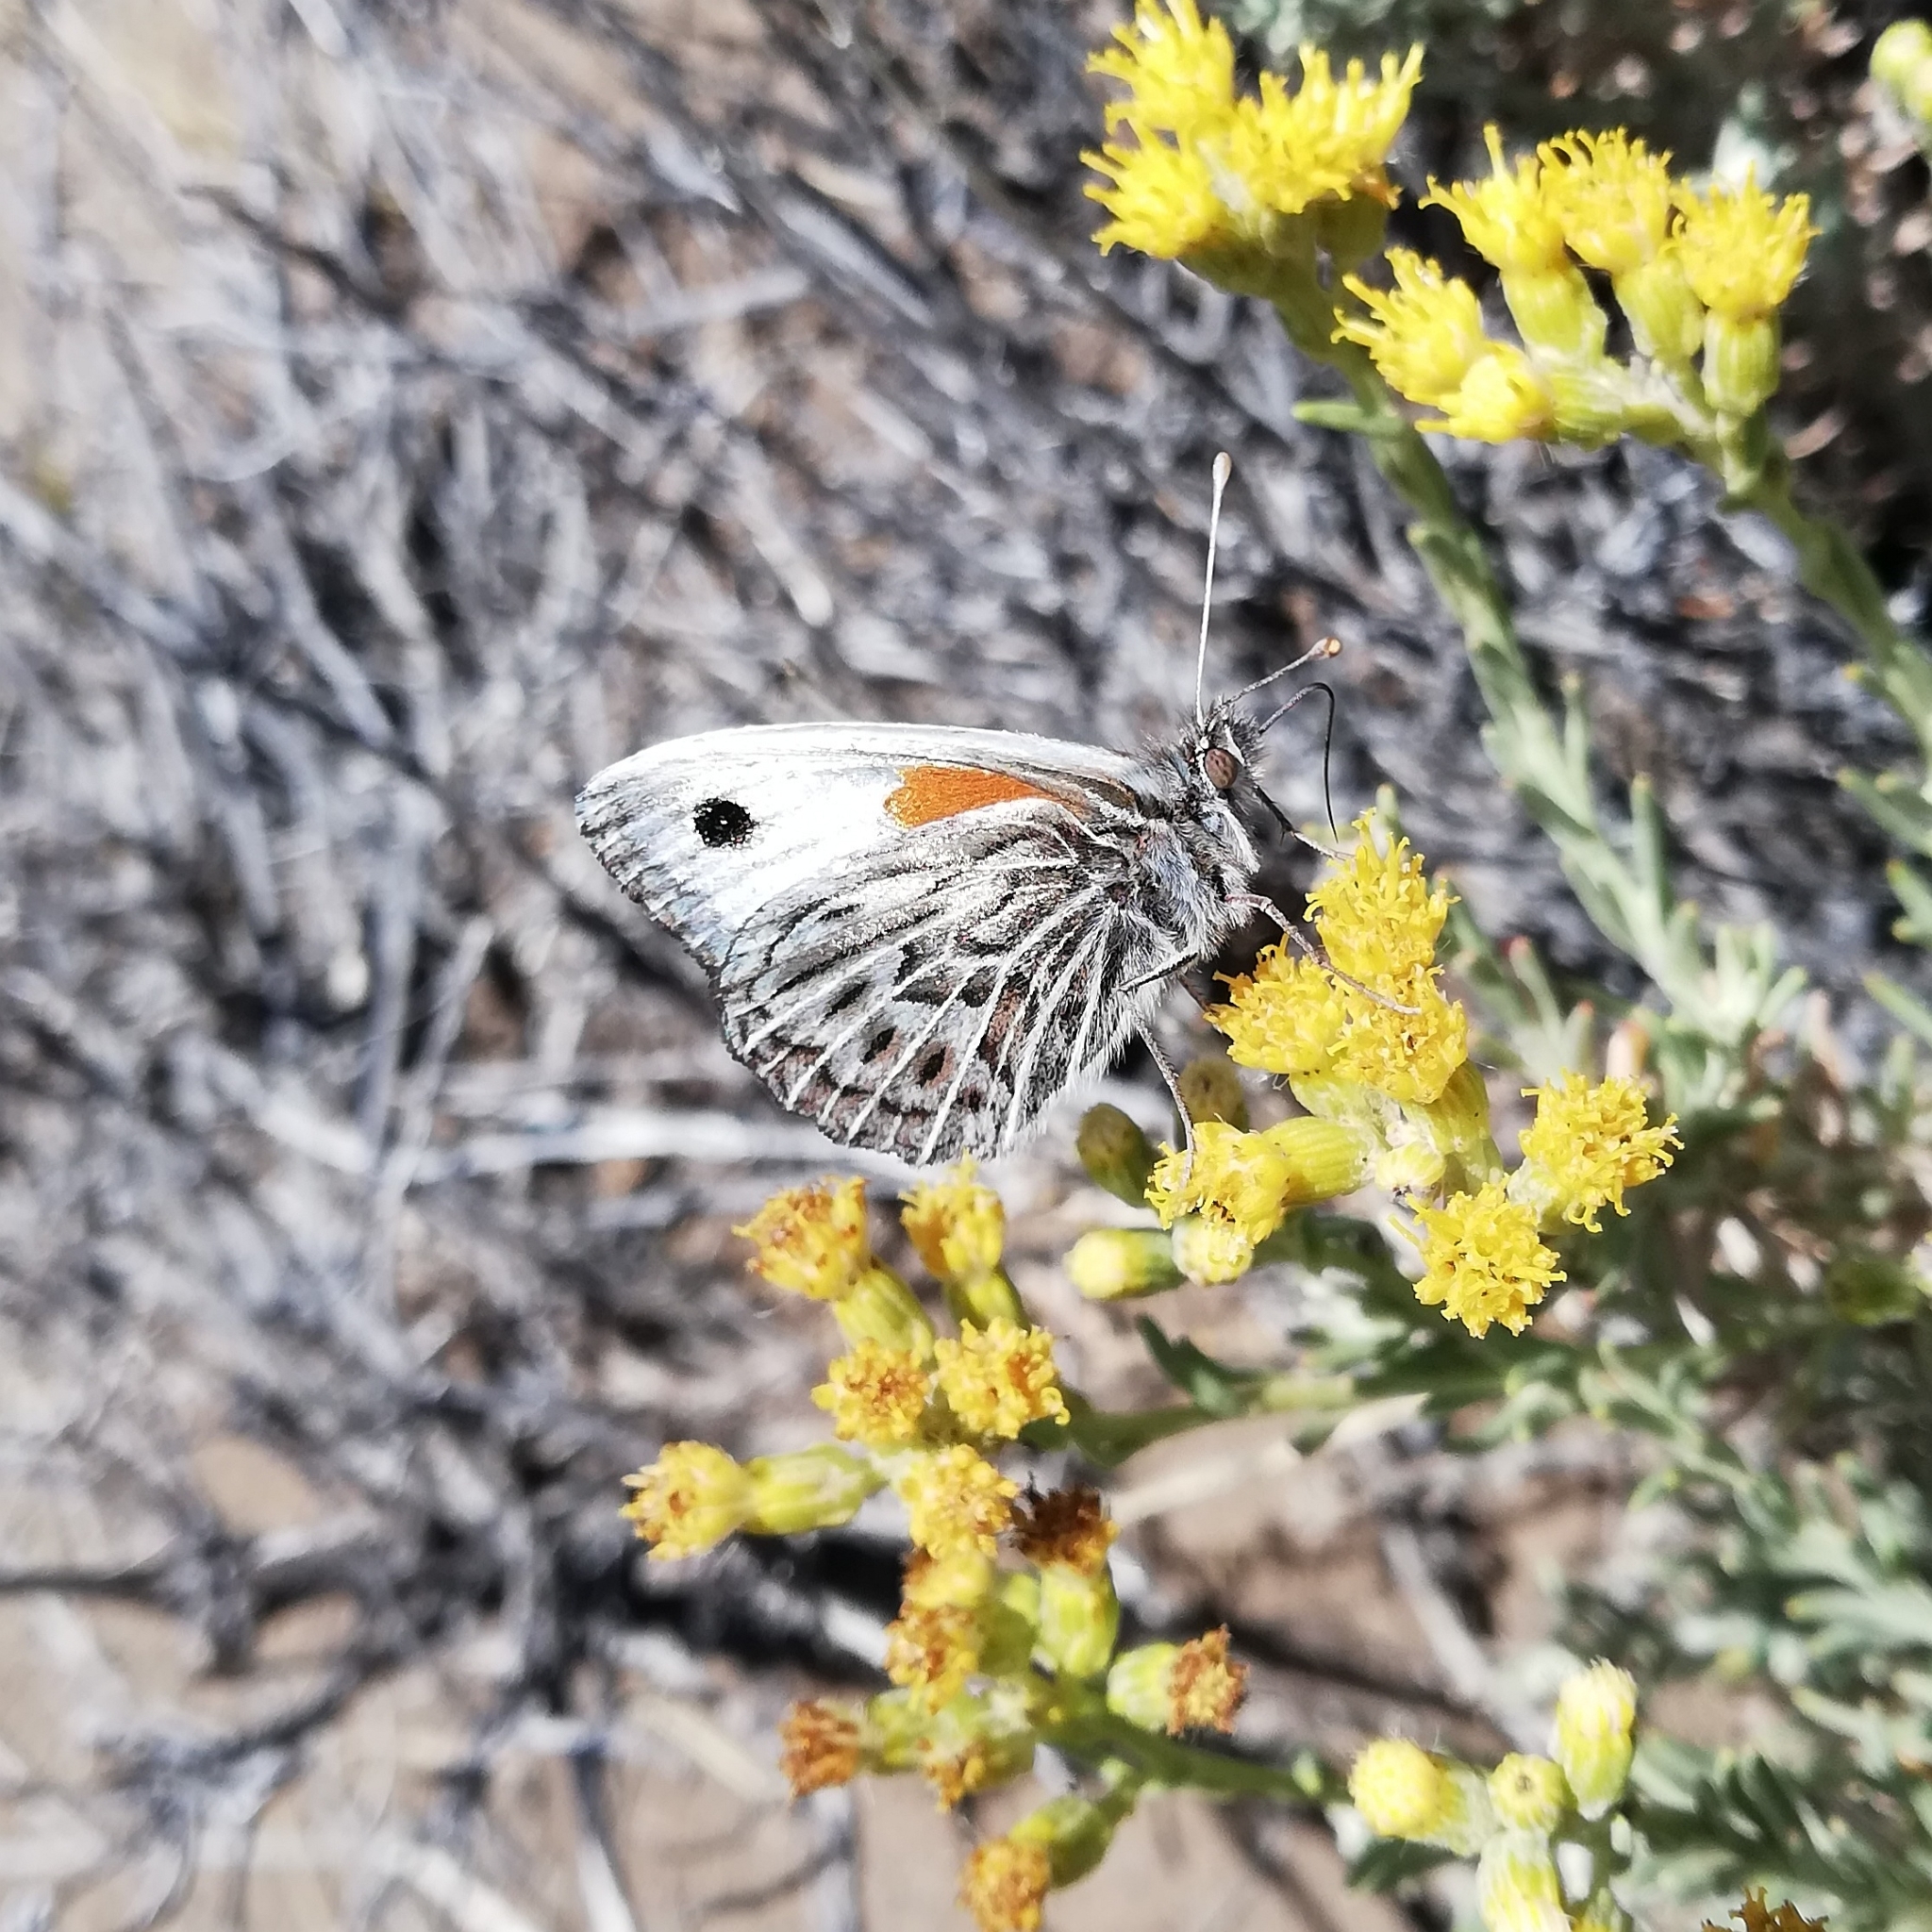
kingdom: Animalia
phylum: Arthropoda
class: Insecta
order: Lepidoptera
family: Nymphalidae
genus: Argyrophorus
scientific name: Argyrophorus argenteus
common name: Silver satyr
